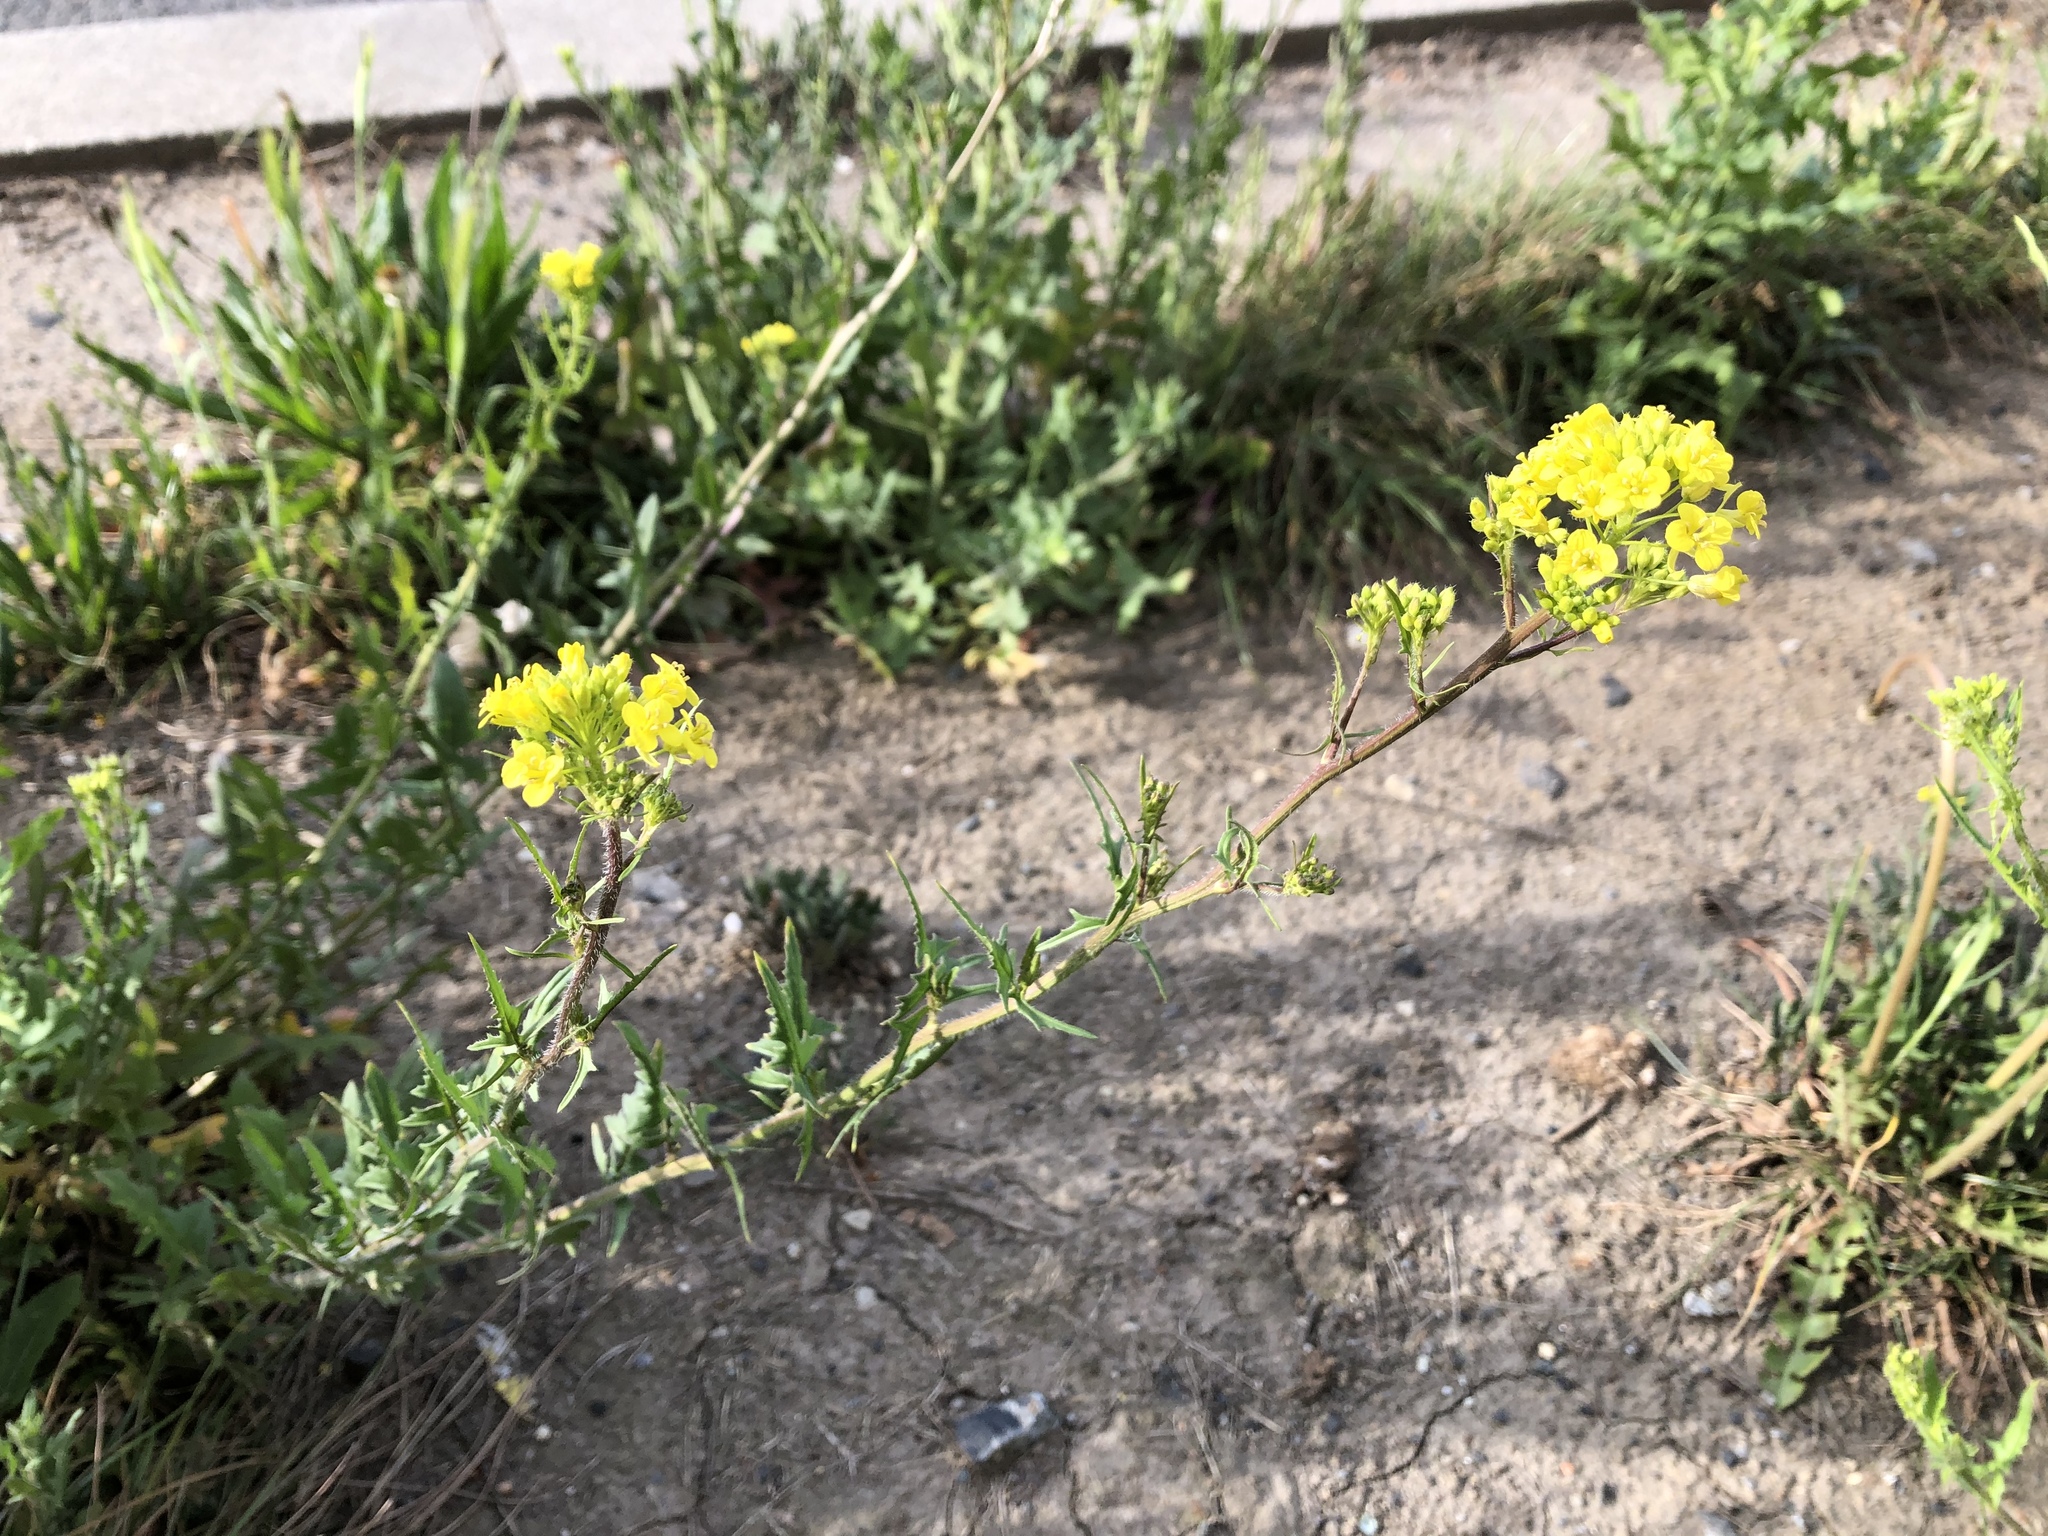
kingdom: Plantae
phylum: Tracheophyta
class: Magnoliopsida
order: Brassicales
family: Brassicaceae
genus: Sisymbrium
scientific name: Sisymbrium loeselii
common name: False london-rocket
